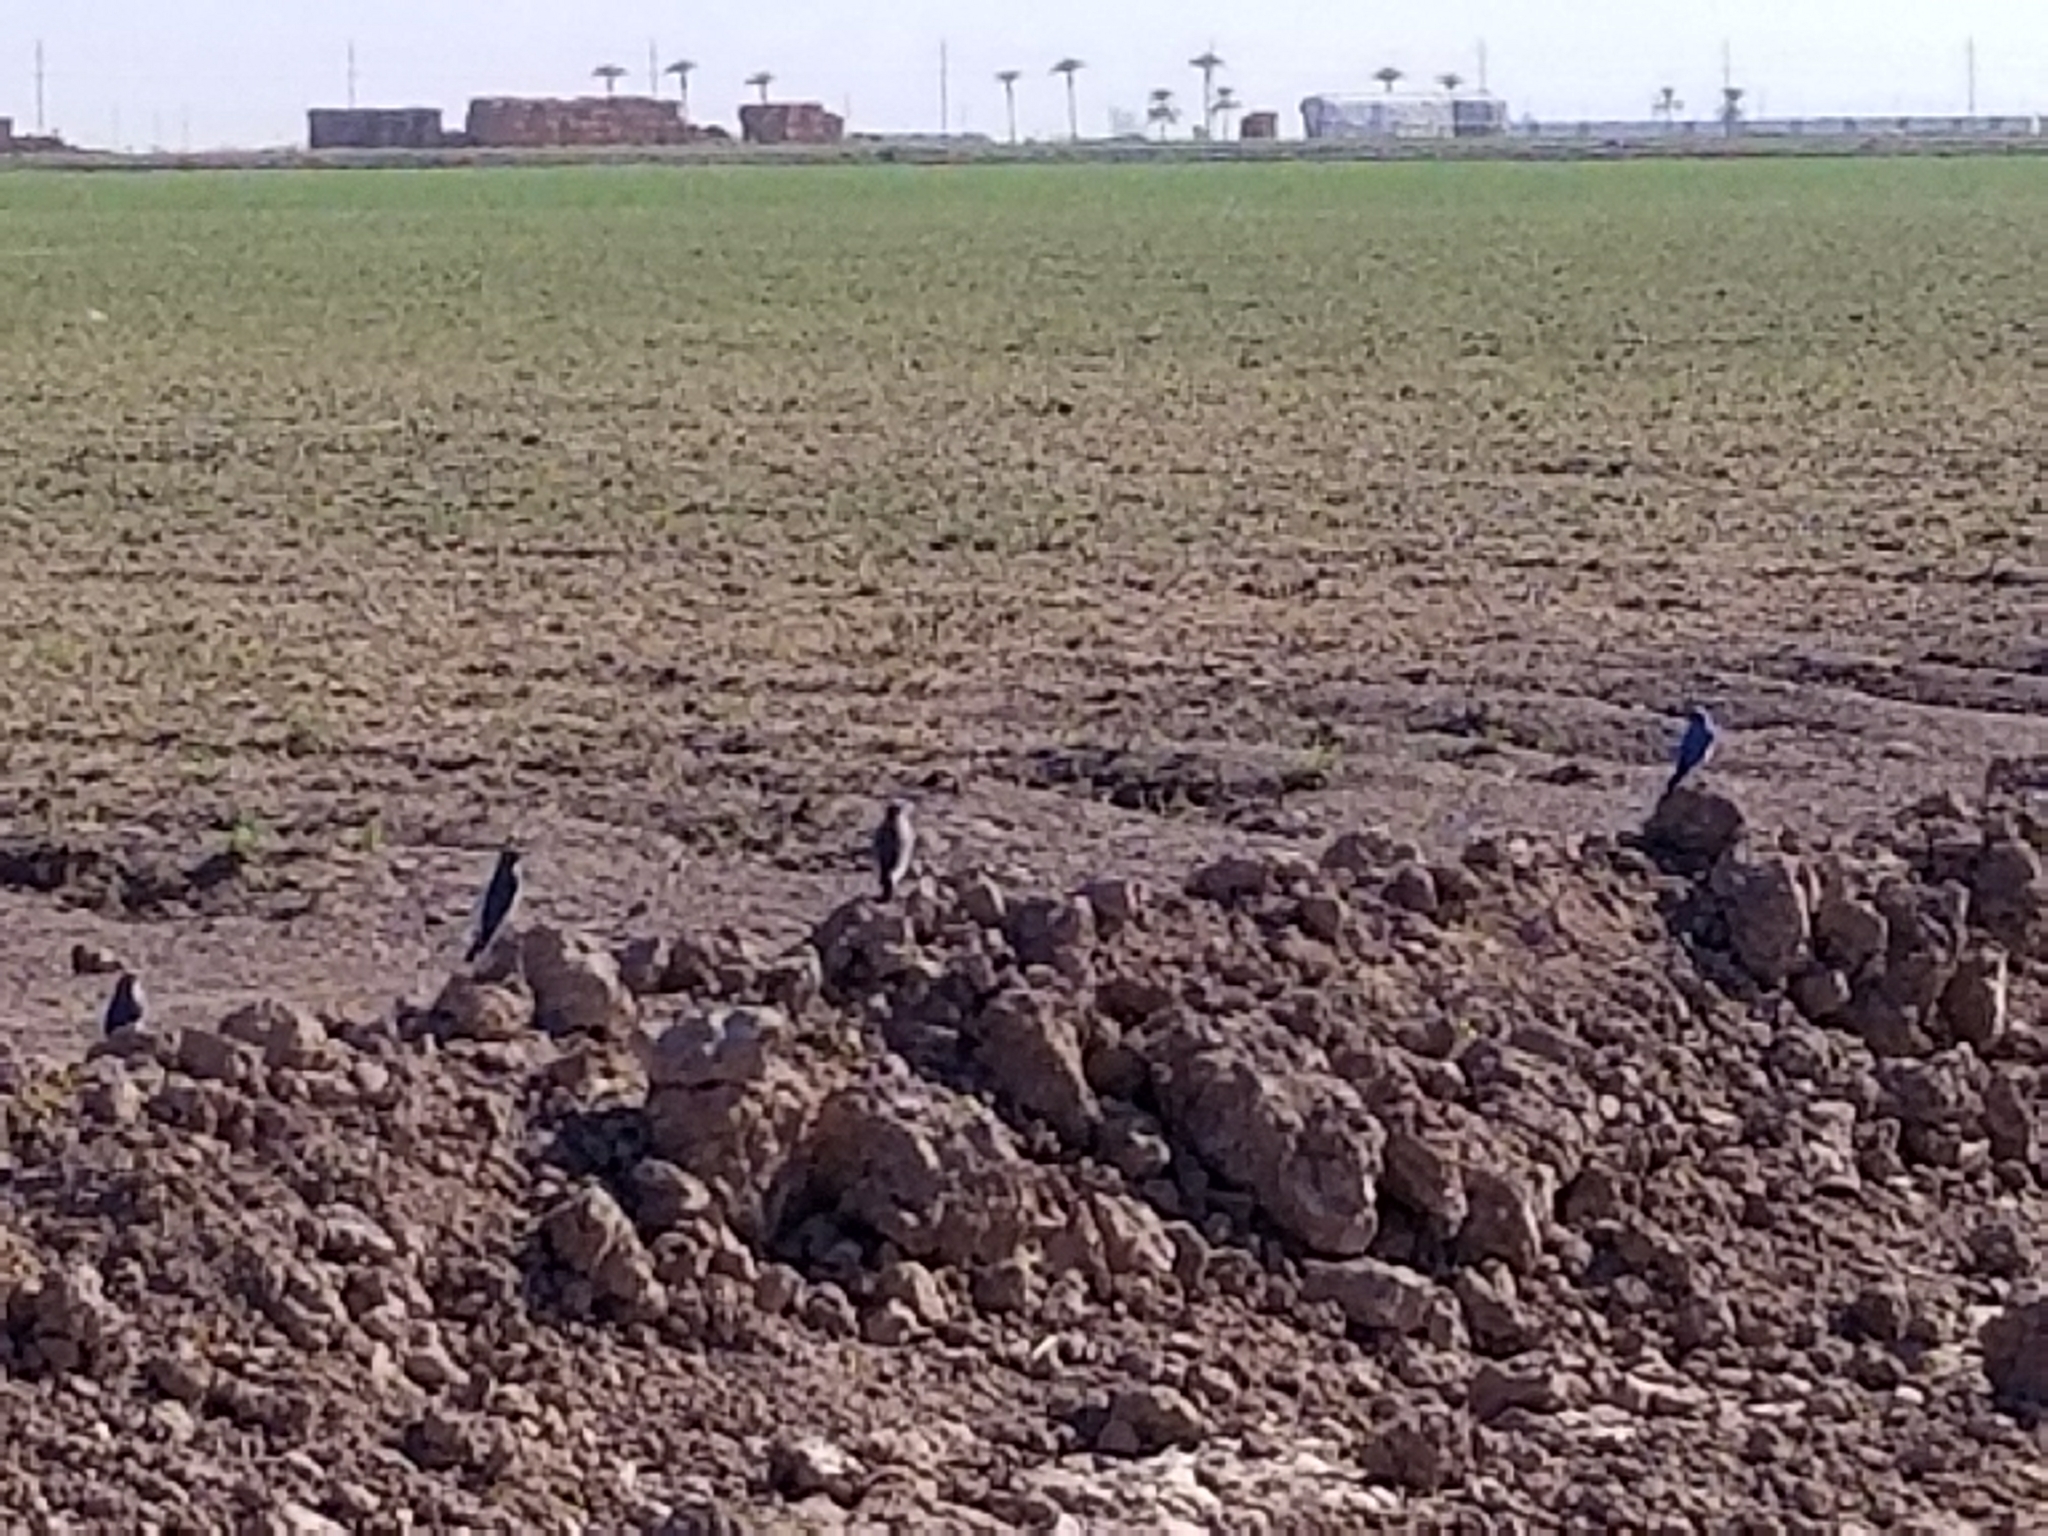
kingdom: Animalia
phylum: Chordata
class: Aves
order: Passeriformes
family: Turdidae
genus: Sialia
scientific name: Sialia currucoides
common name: Mountain bluebird
